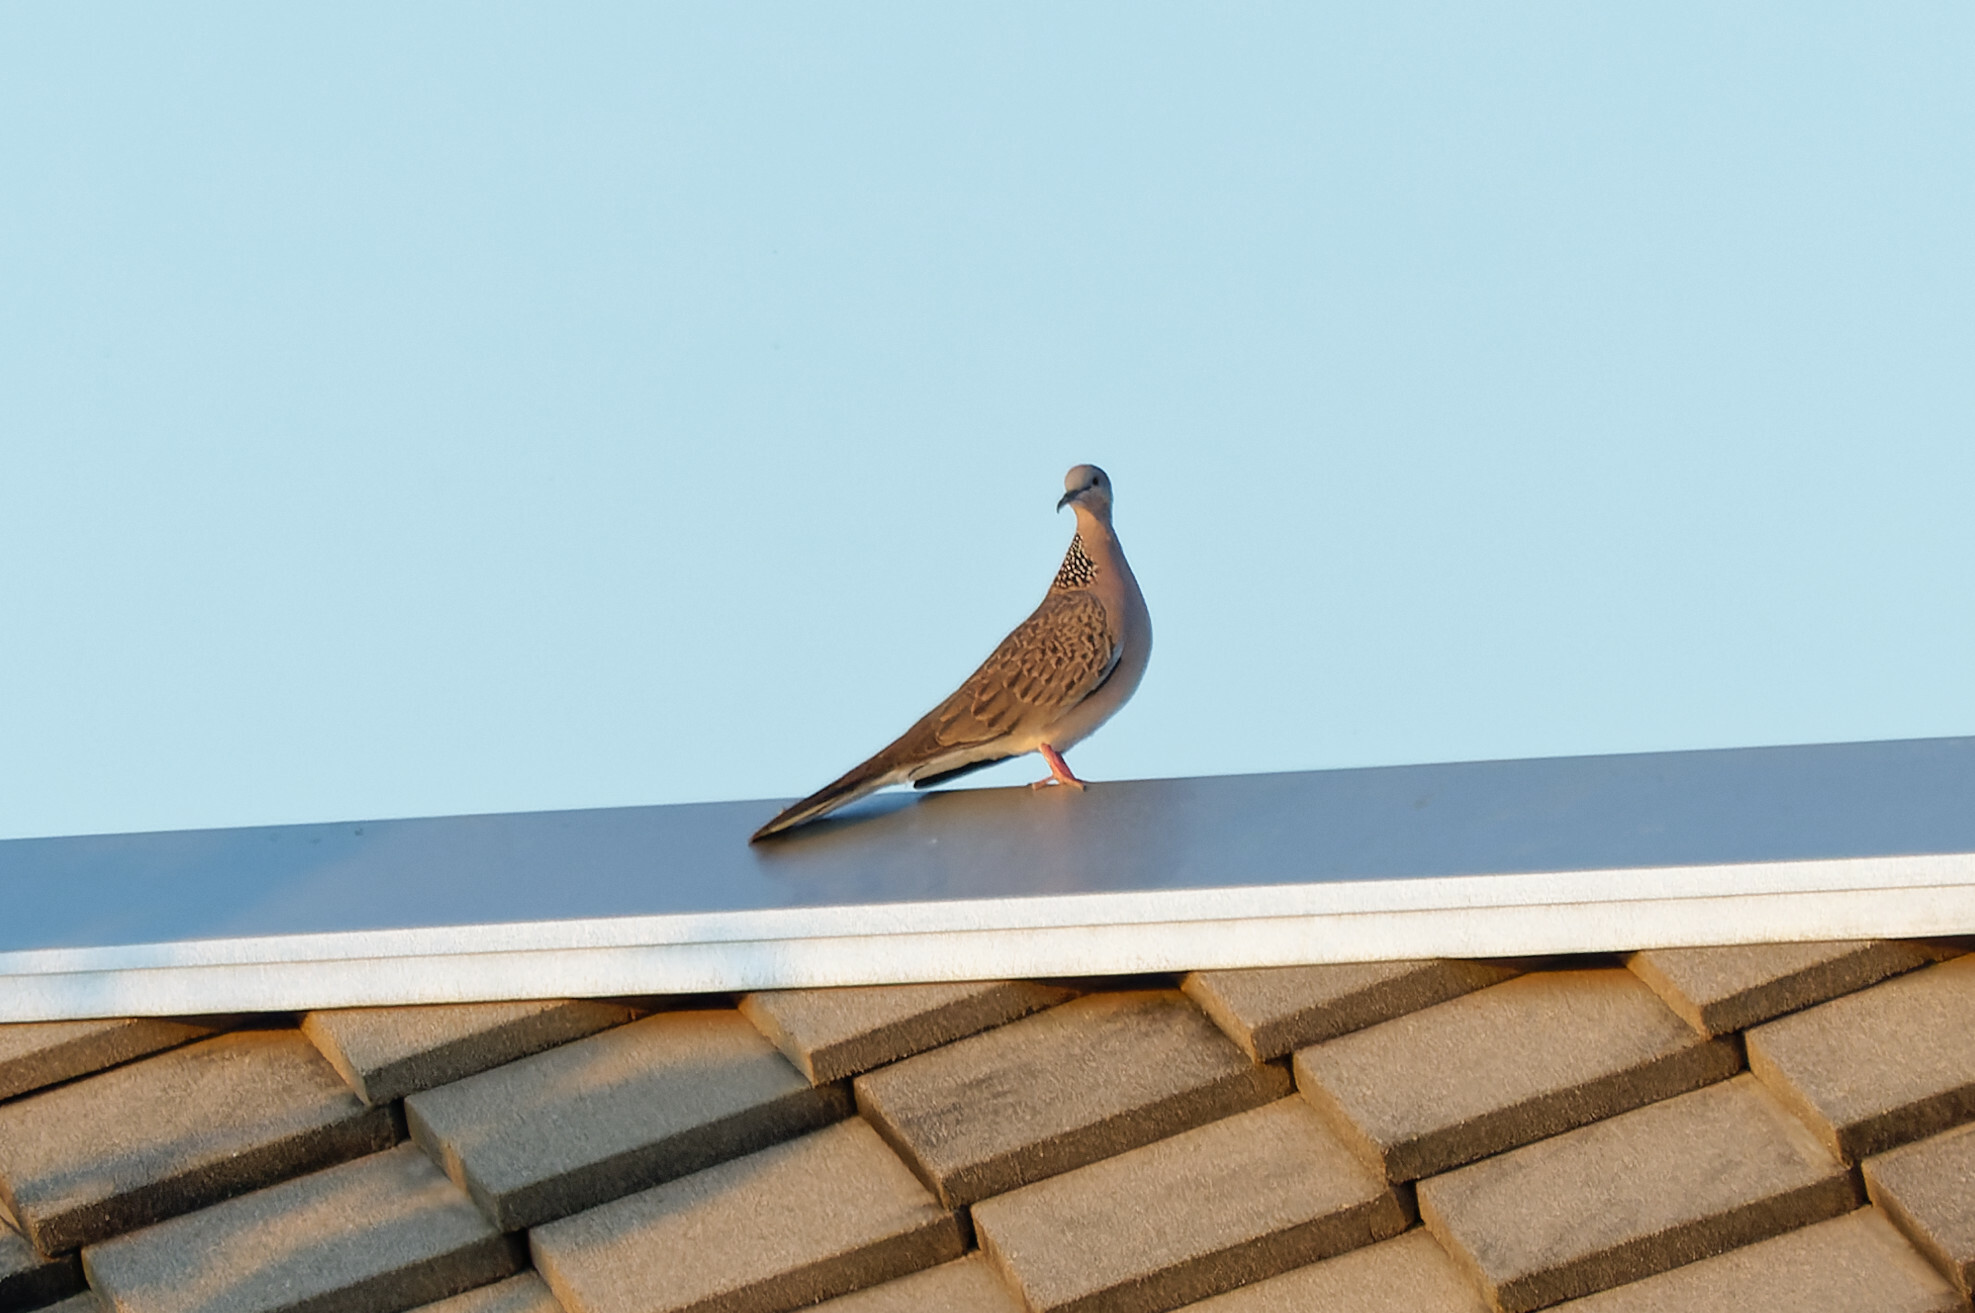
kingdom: Animalia
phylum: Chordata
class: Aves
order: Columbiformes
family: Columbidae
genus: Spilopelia
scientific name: Spilopelia chinensis
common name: Spotted dove
